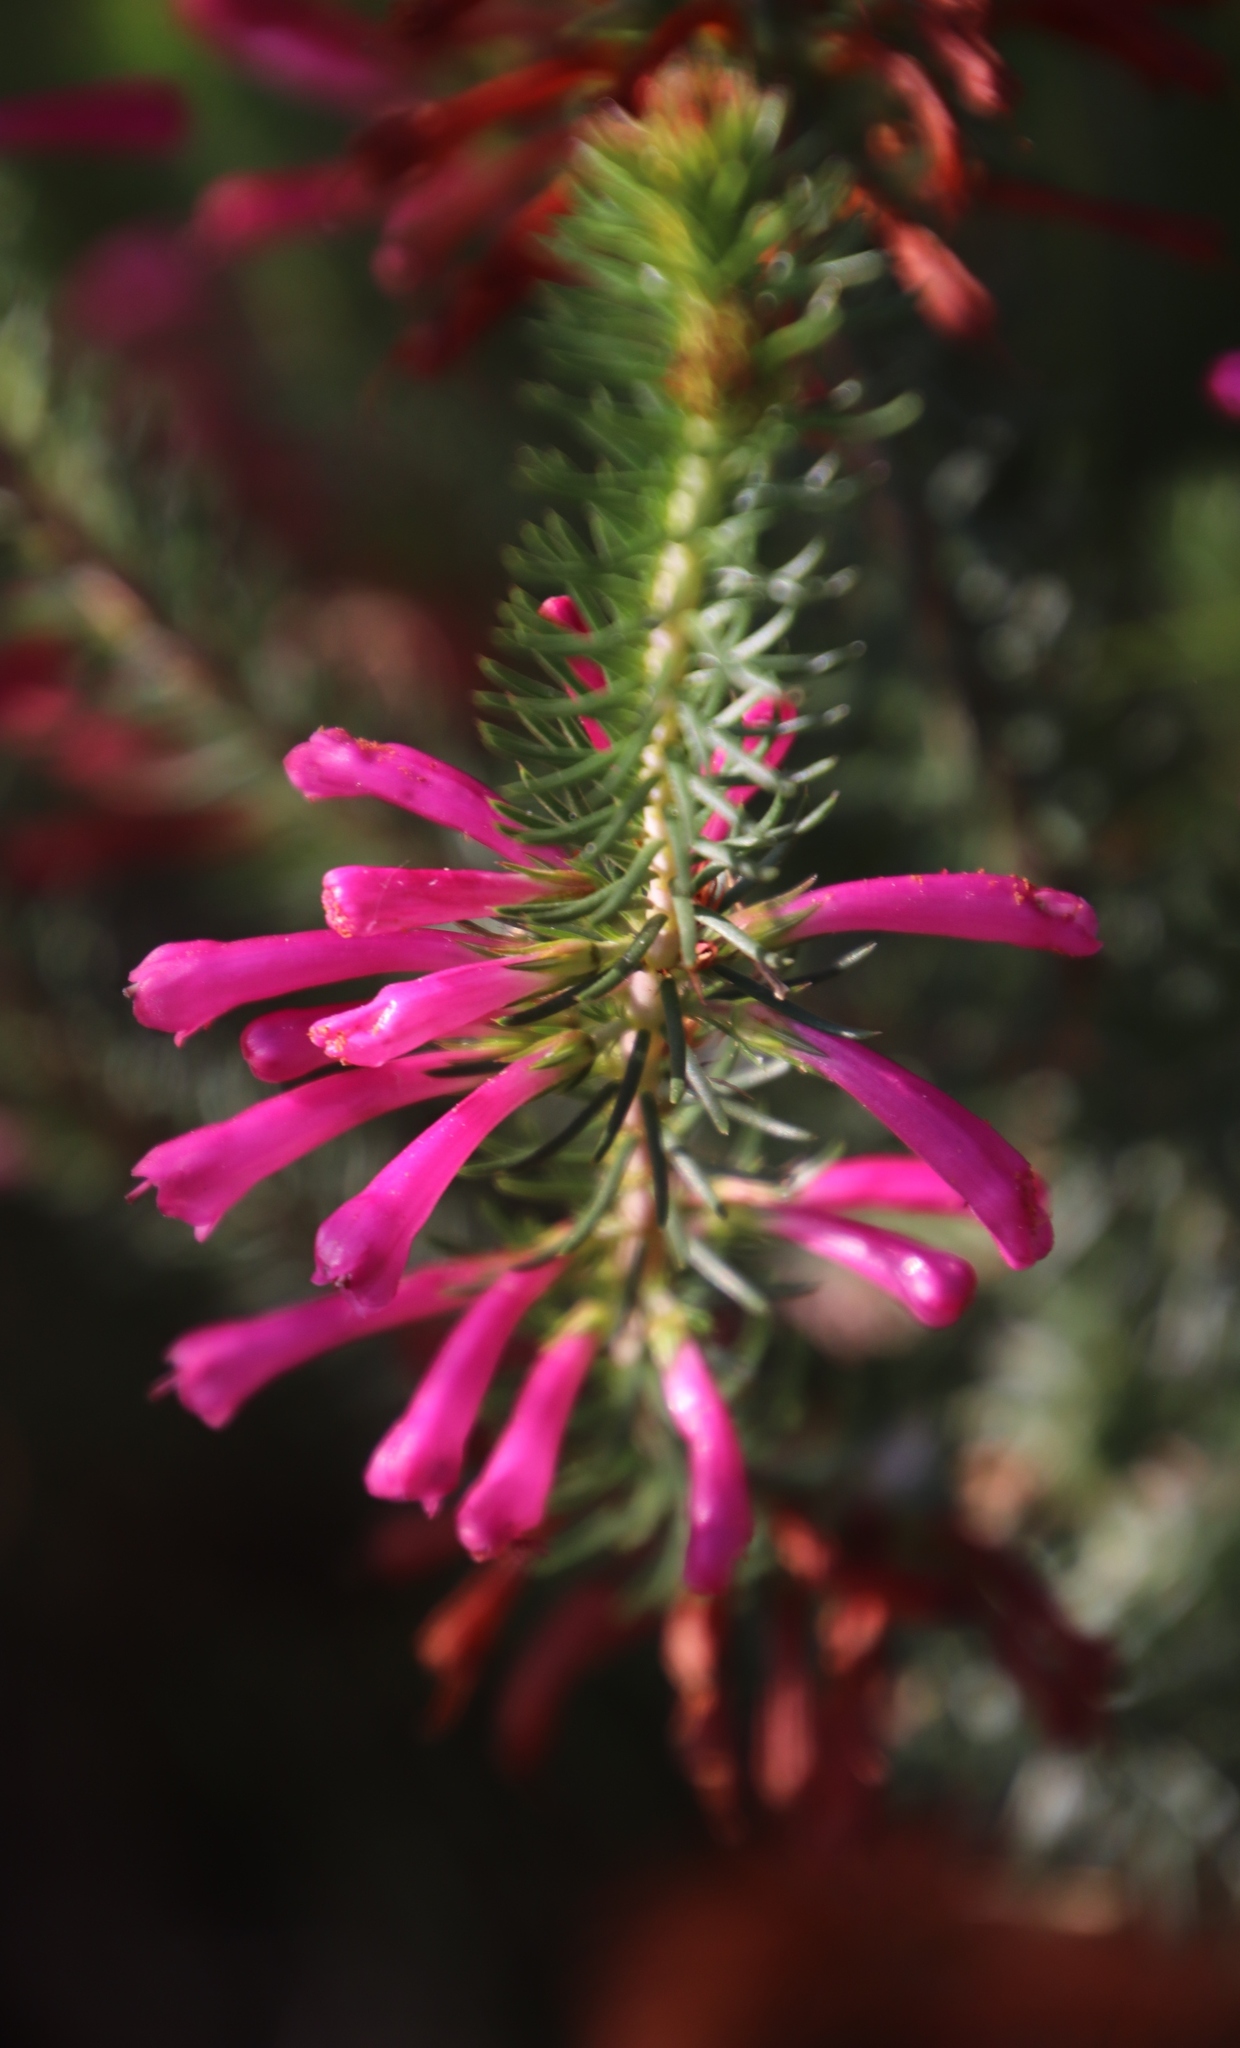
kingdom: Plantae
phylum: Tracheophyta
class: Magnoliopsida
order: Ericales
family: Ericaceae
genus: Erica
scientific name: Erica abietina
